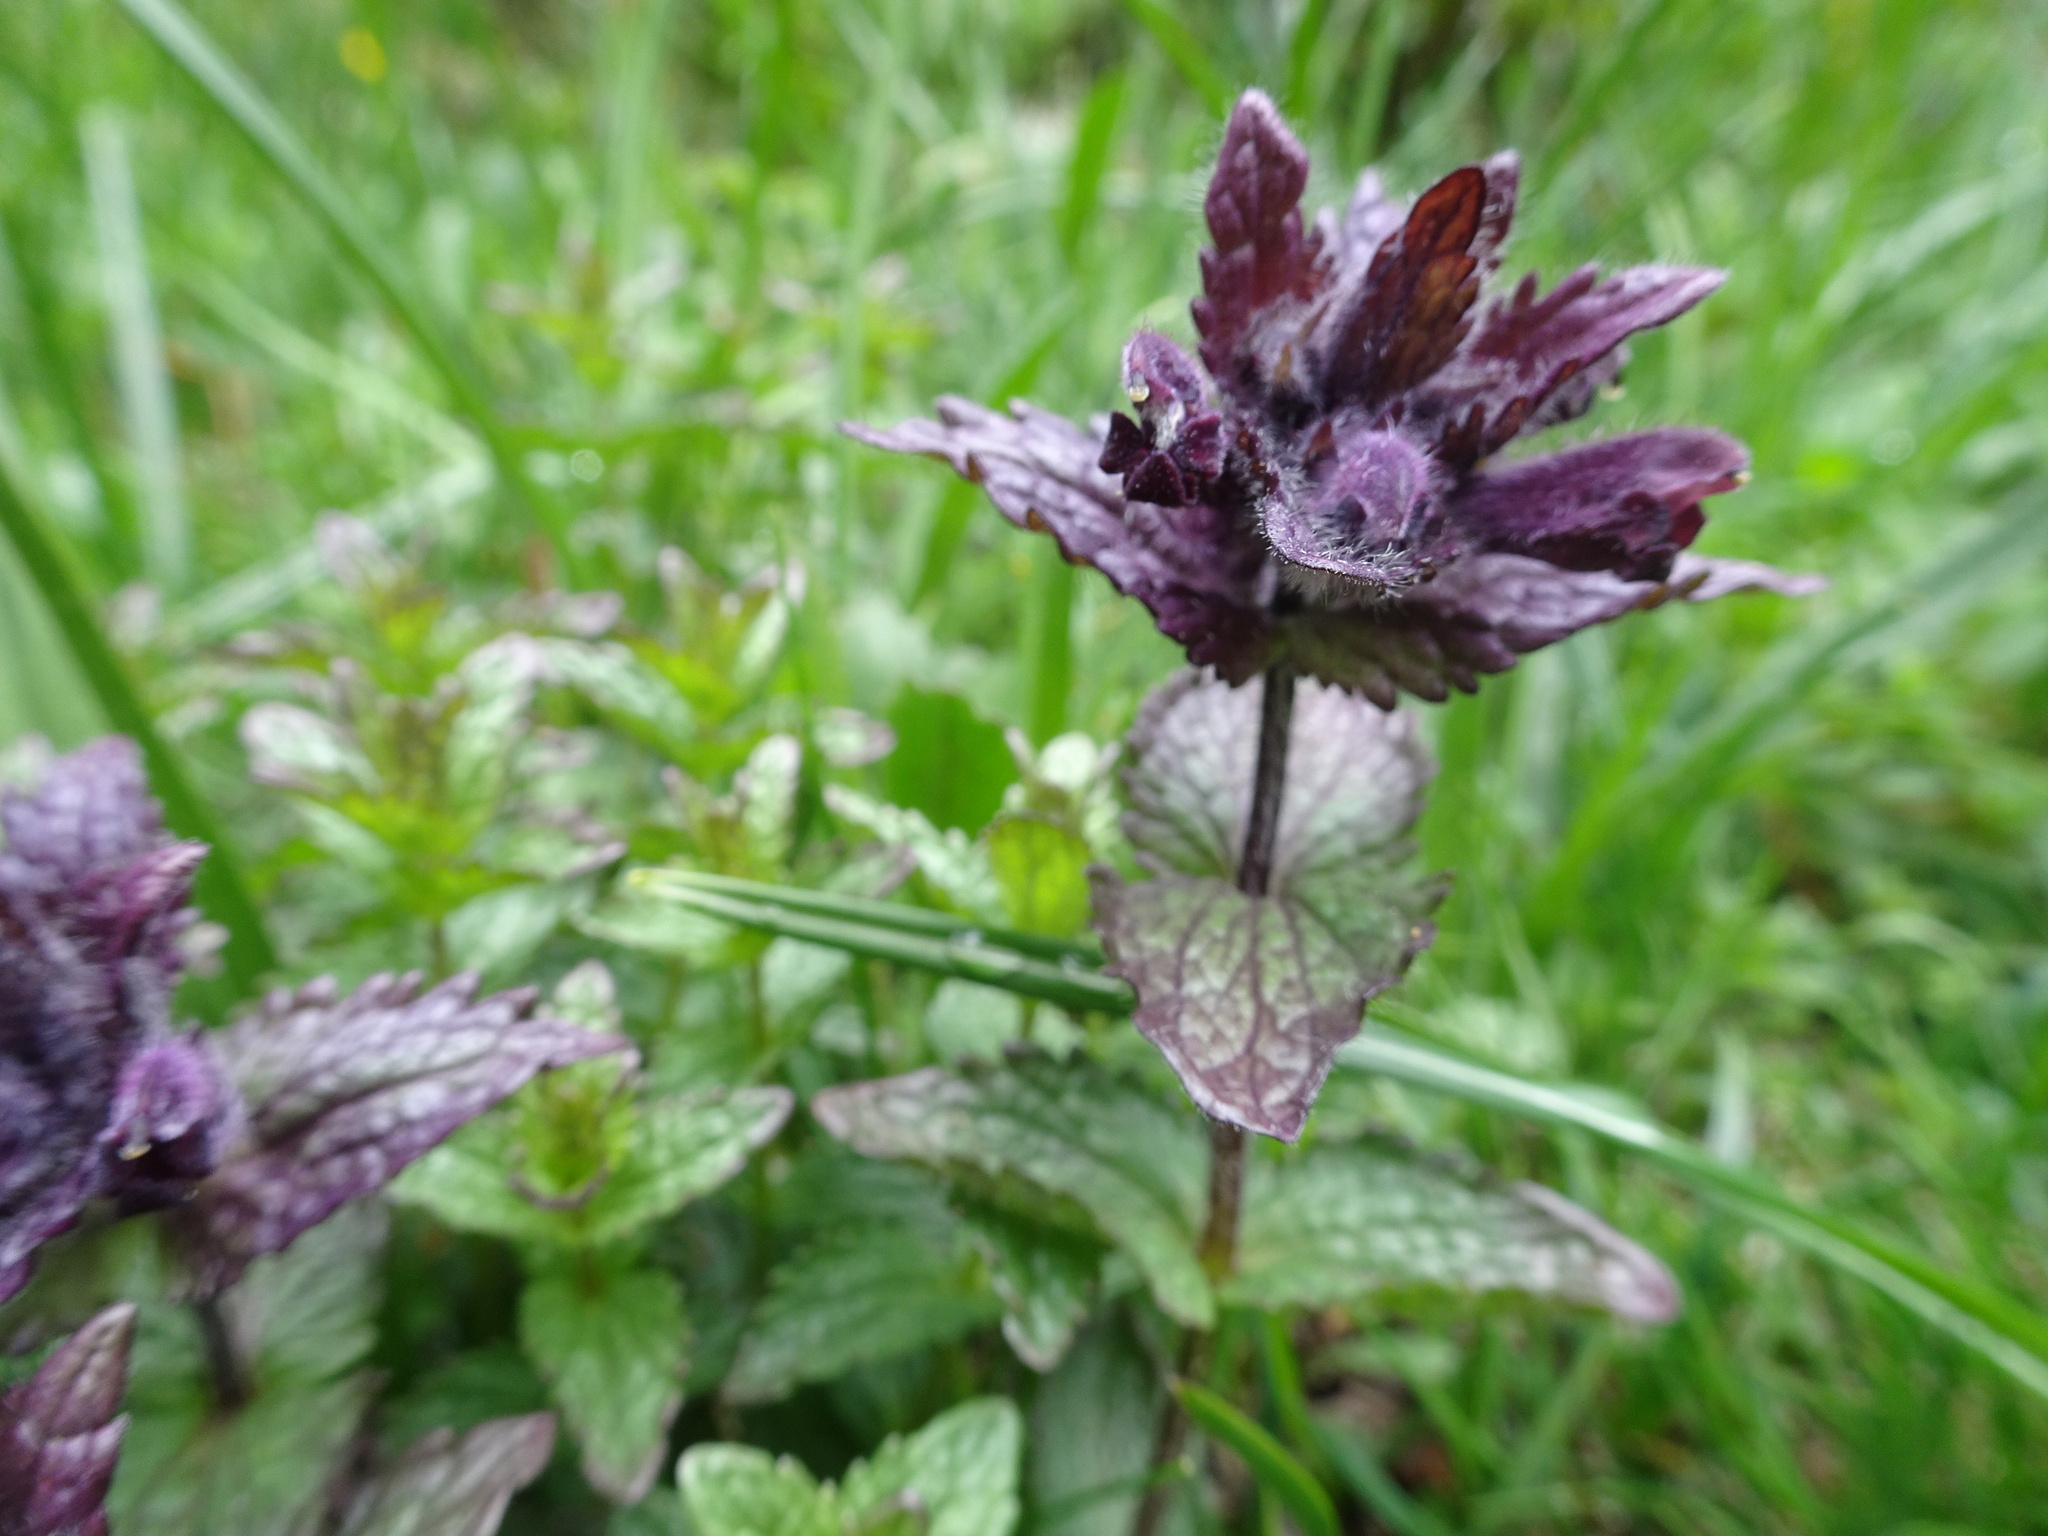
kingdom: Plantae
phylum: Tracheophyta
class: Magnoliopsida
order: Lamiales
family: Orobanchaceae
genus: Bartsia
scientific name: Bartsia alpina
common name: Alpine bartsia
